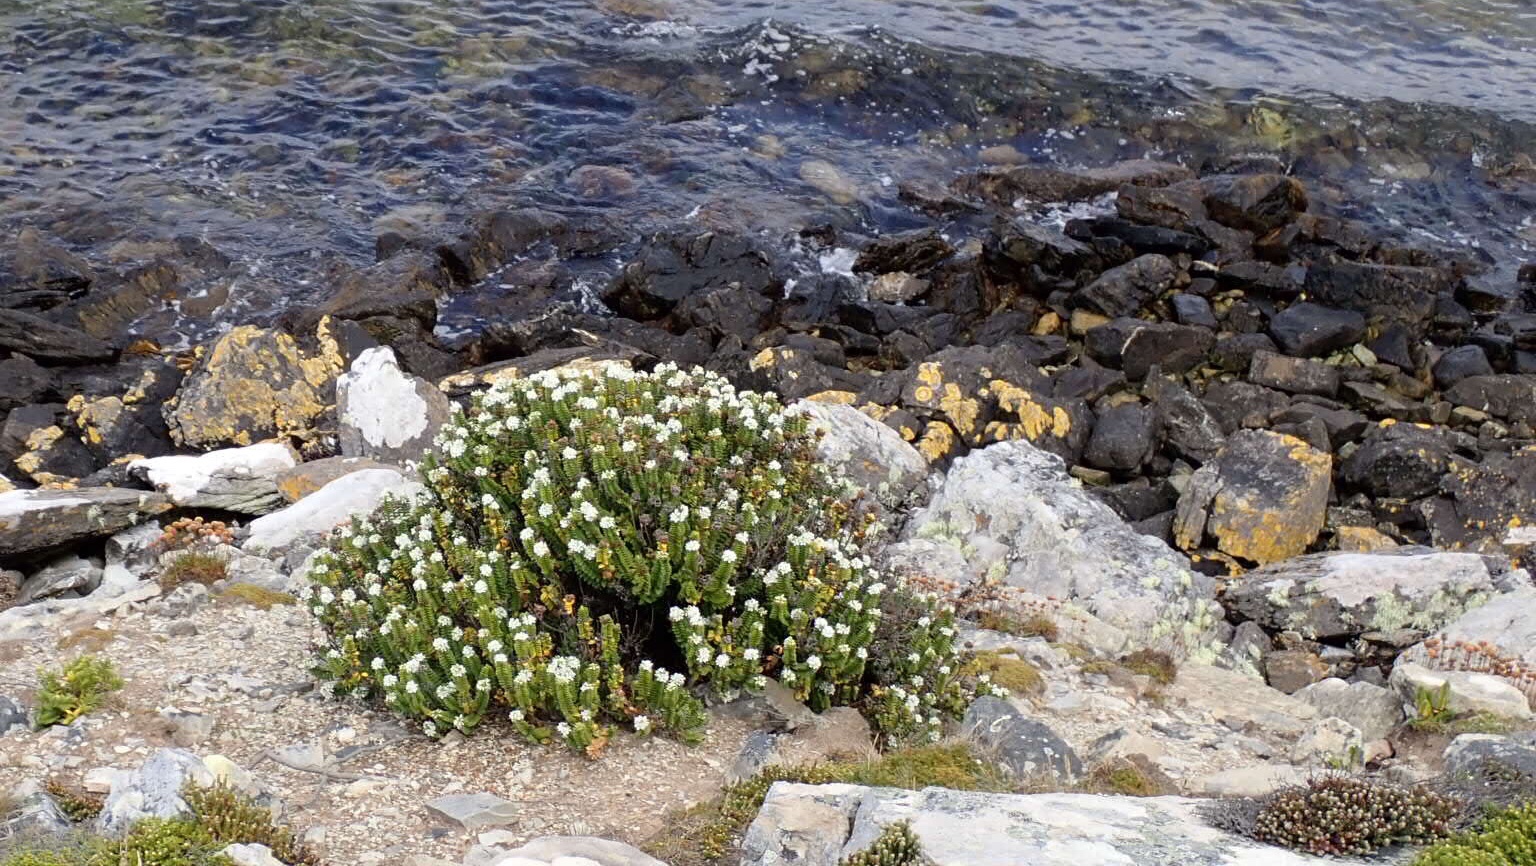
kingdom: Plantae
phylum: Tracheophyta
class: Magnoliopsida
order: Lamiales
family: Plantaginaceae
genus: Veronica
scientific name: Veronica elliptica
